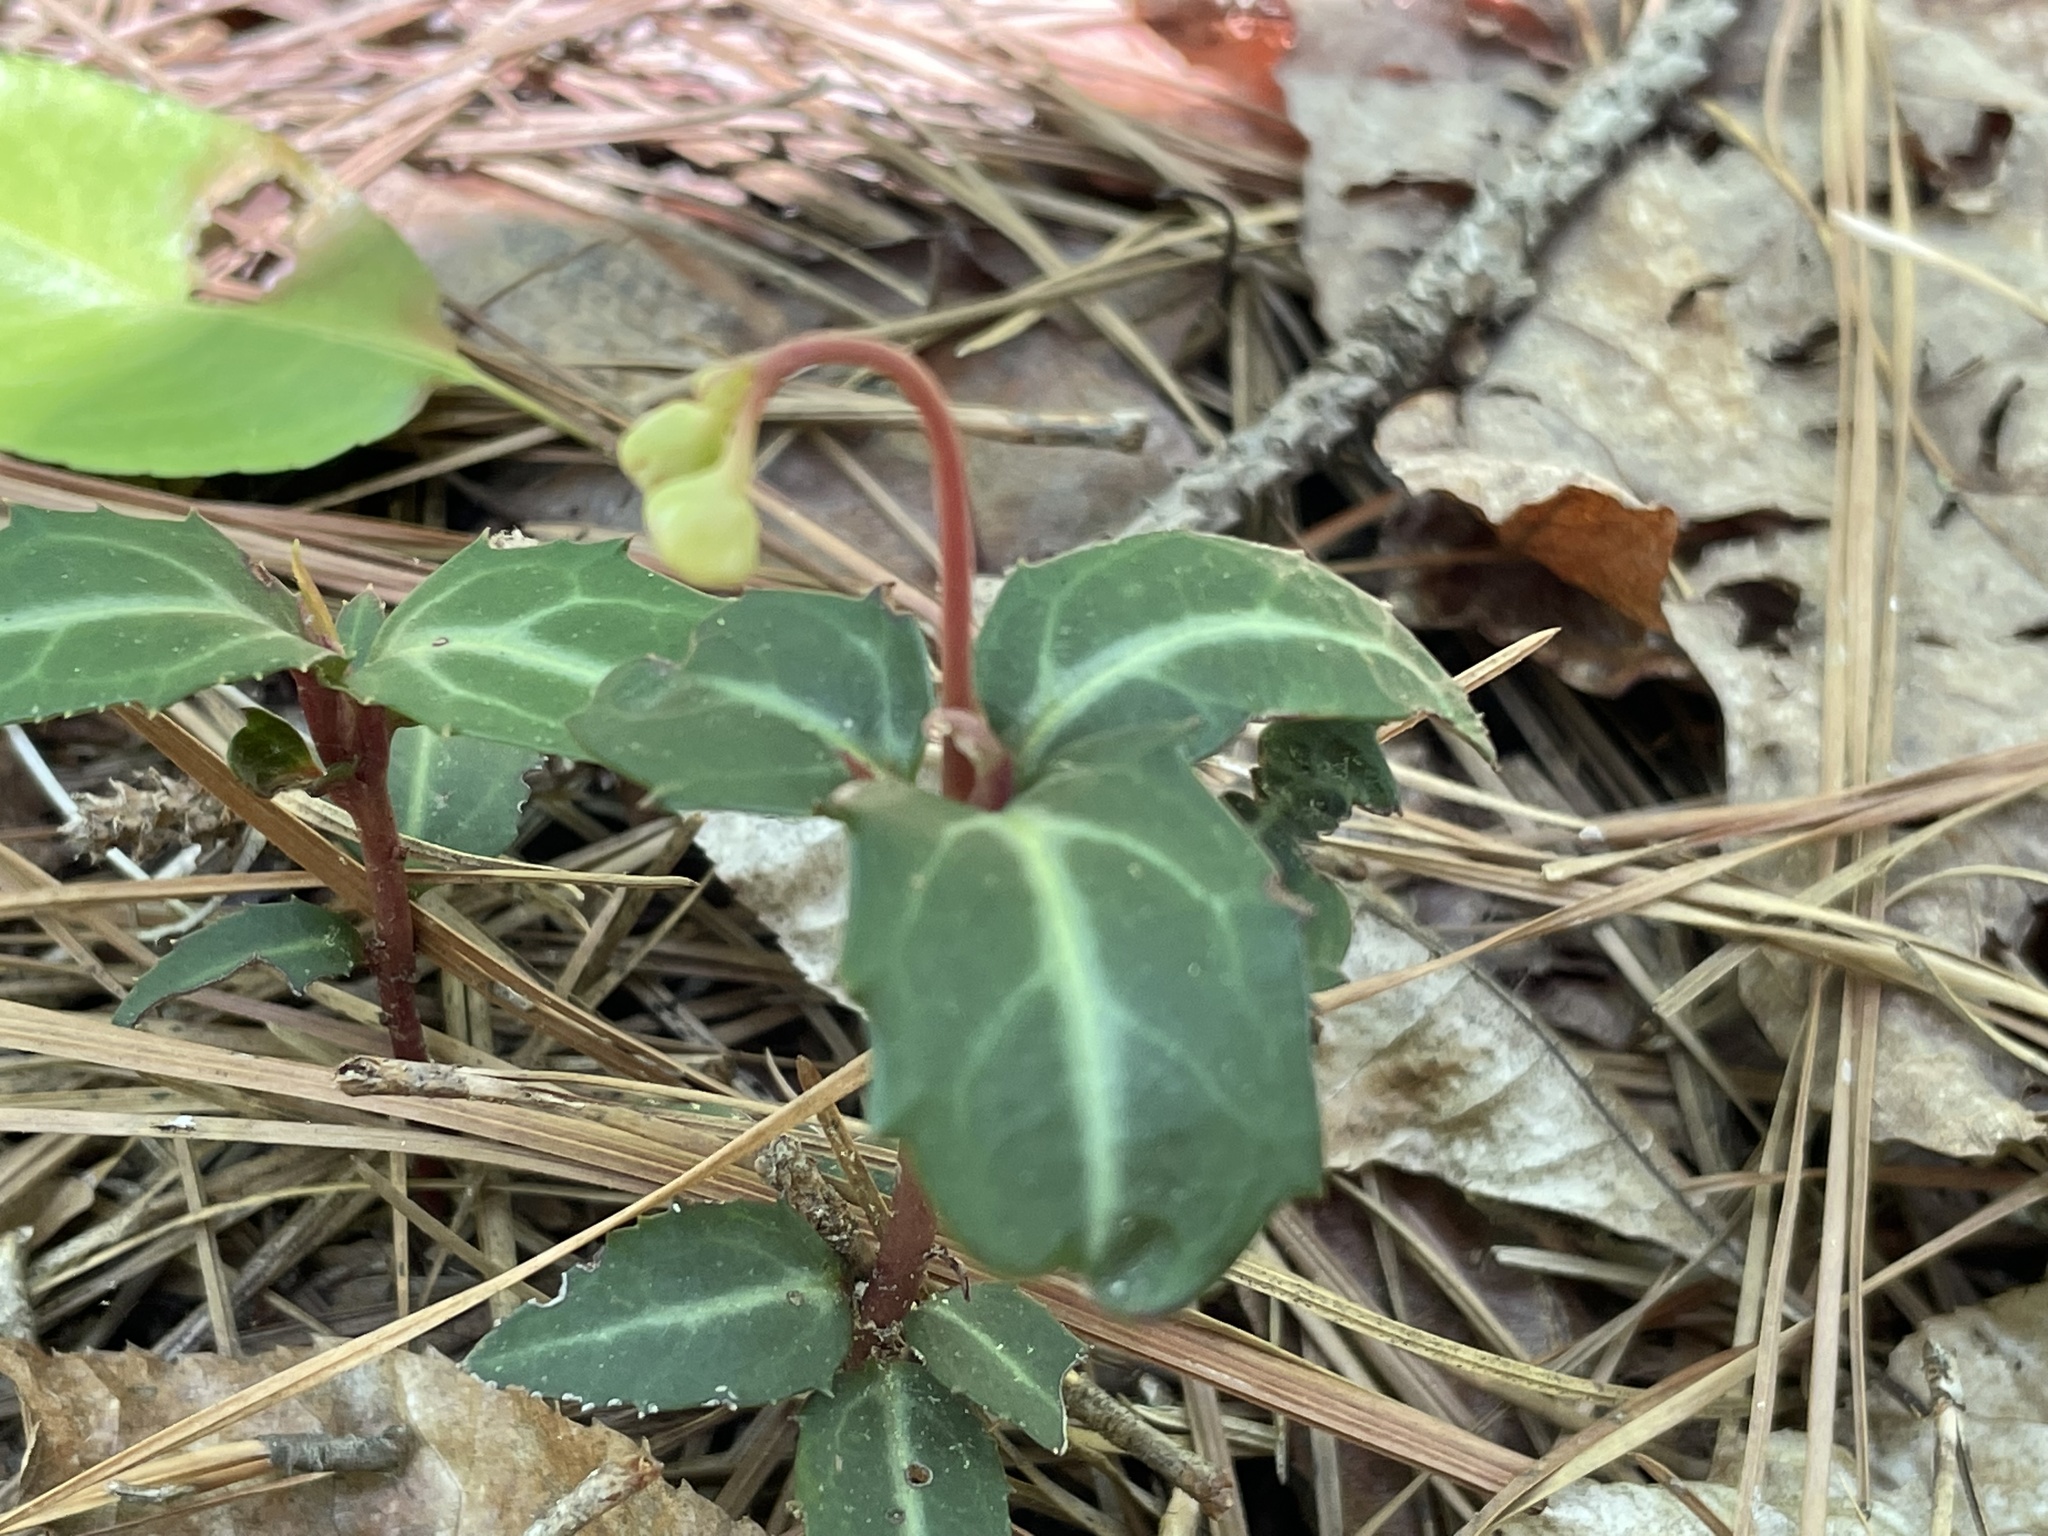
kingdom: Plantae
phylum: Tracheophyta
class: Magnoliopsida
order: Ericales
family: Ericaceae
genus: Chimaphila
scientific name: Chimaphila maculata
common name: Spotted pipsissewa
